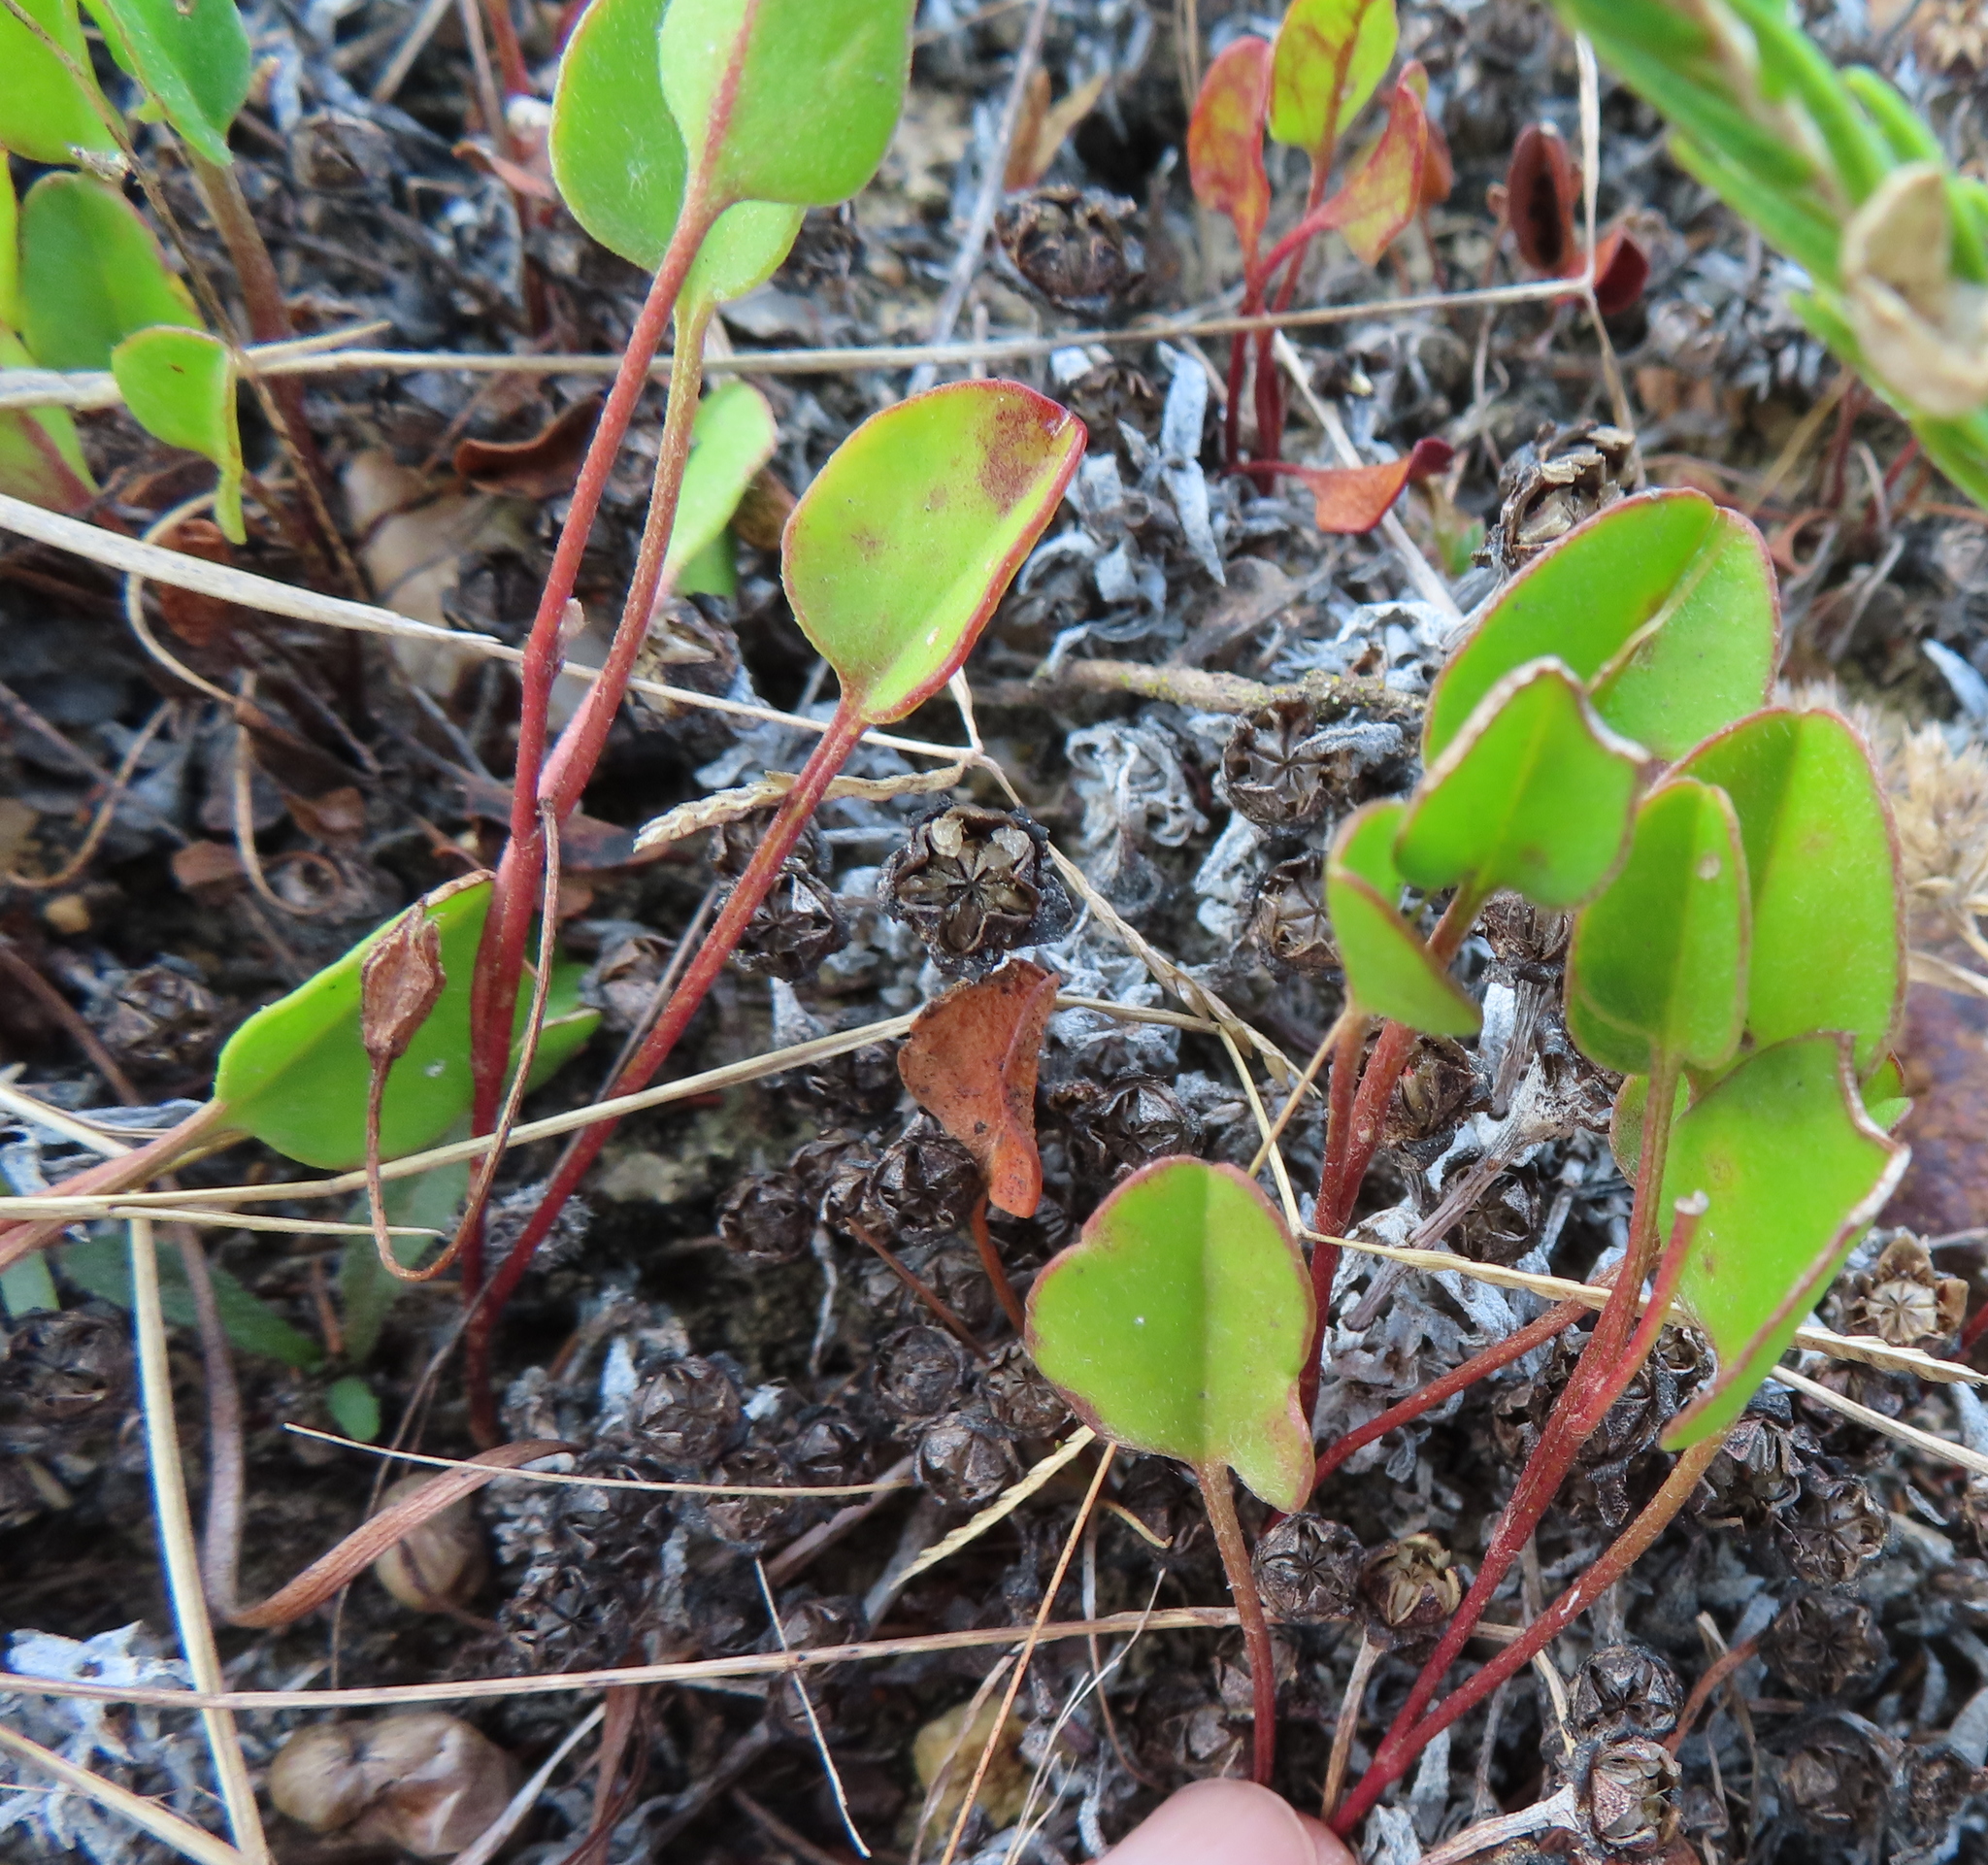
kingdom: Plantae
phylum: Tracheophyta
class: Magnoliopsida
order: Solanales
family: Convolvulaceae
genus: Falkia
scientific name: Falkia repens
